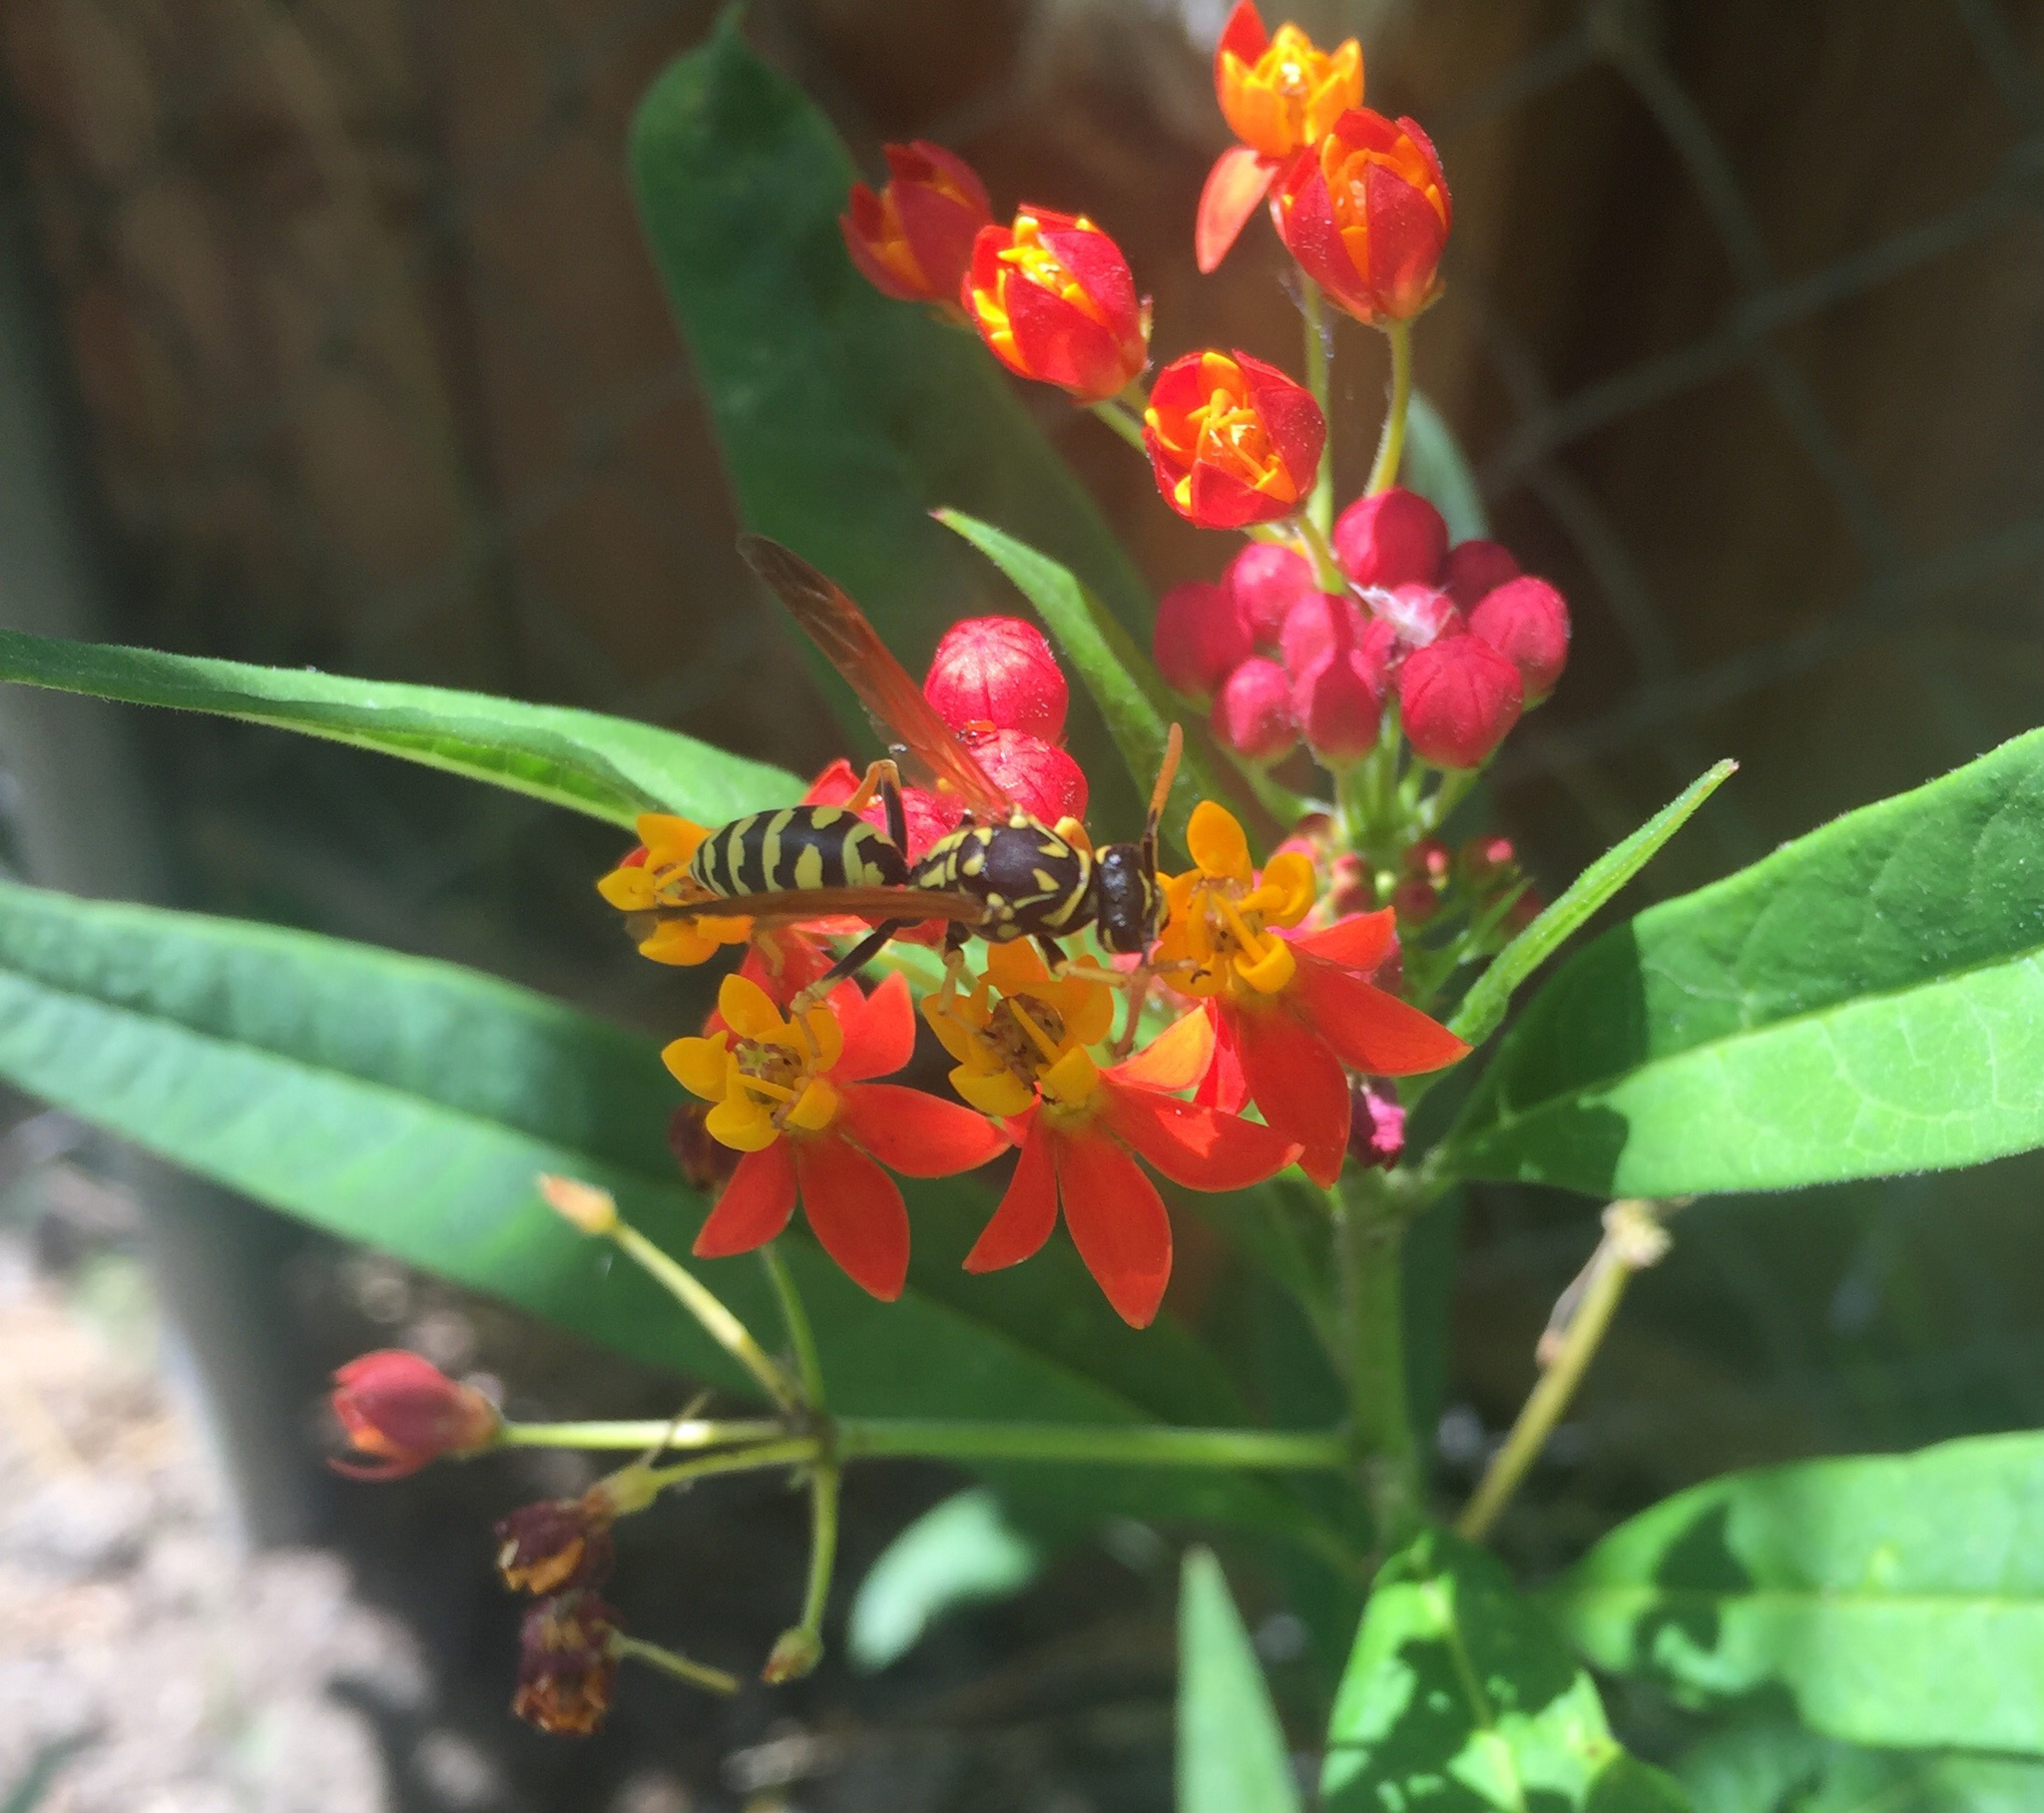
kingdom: Animalia
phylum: Arthropoda
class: Insecta
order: Hymenoptera
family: Eumenidae
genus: Polistes
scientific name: Polistes dominula
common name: Paper wasp
